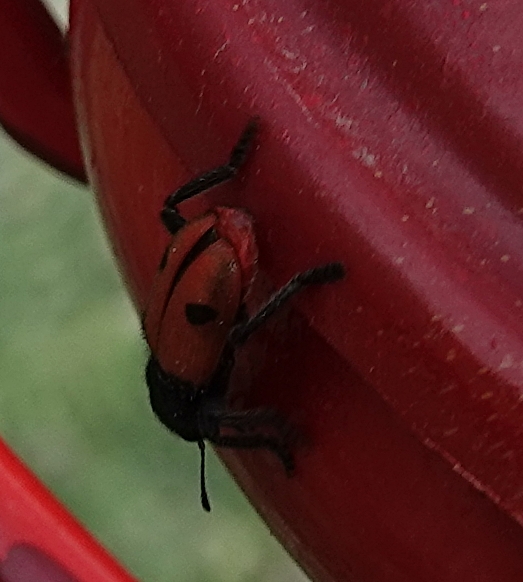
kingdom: Animalia
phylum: Arthropoda
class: Insecta
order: Coleoptera
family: Cleridae
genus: Enoclerus
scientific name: Enoclerus
